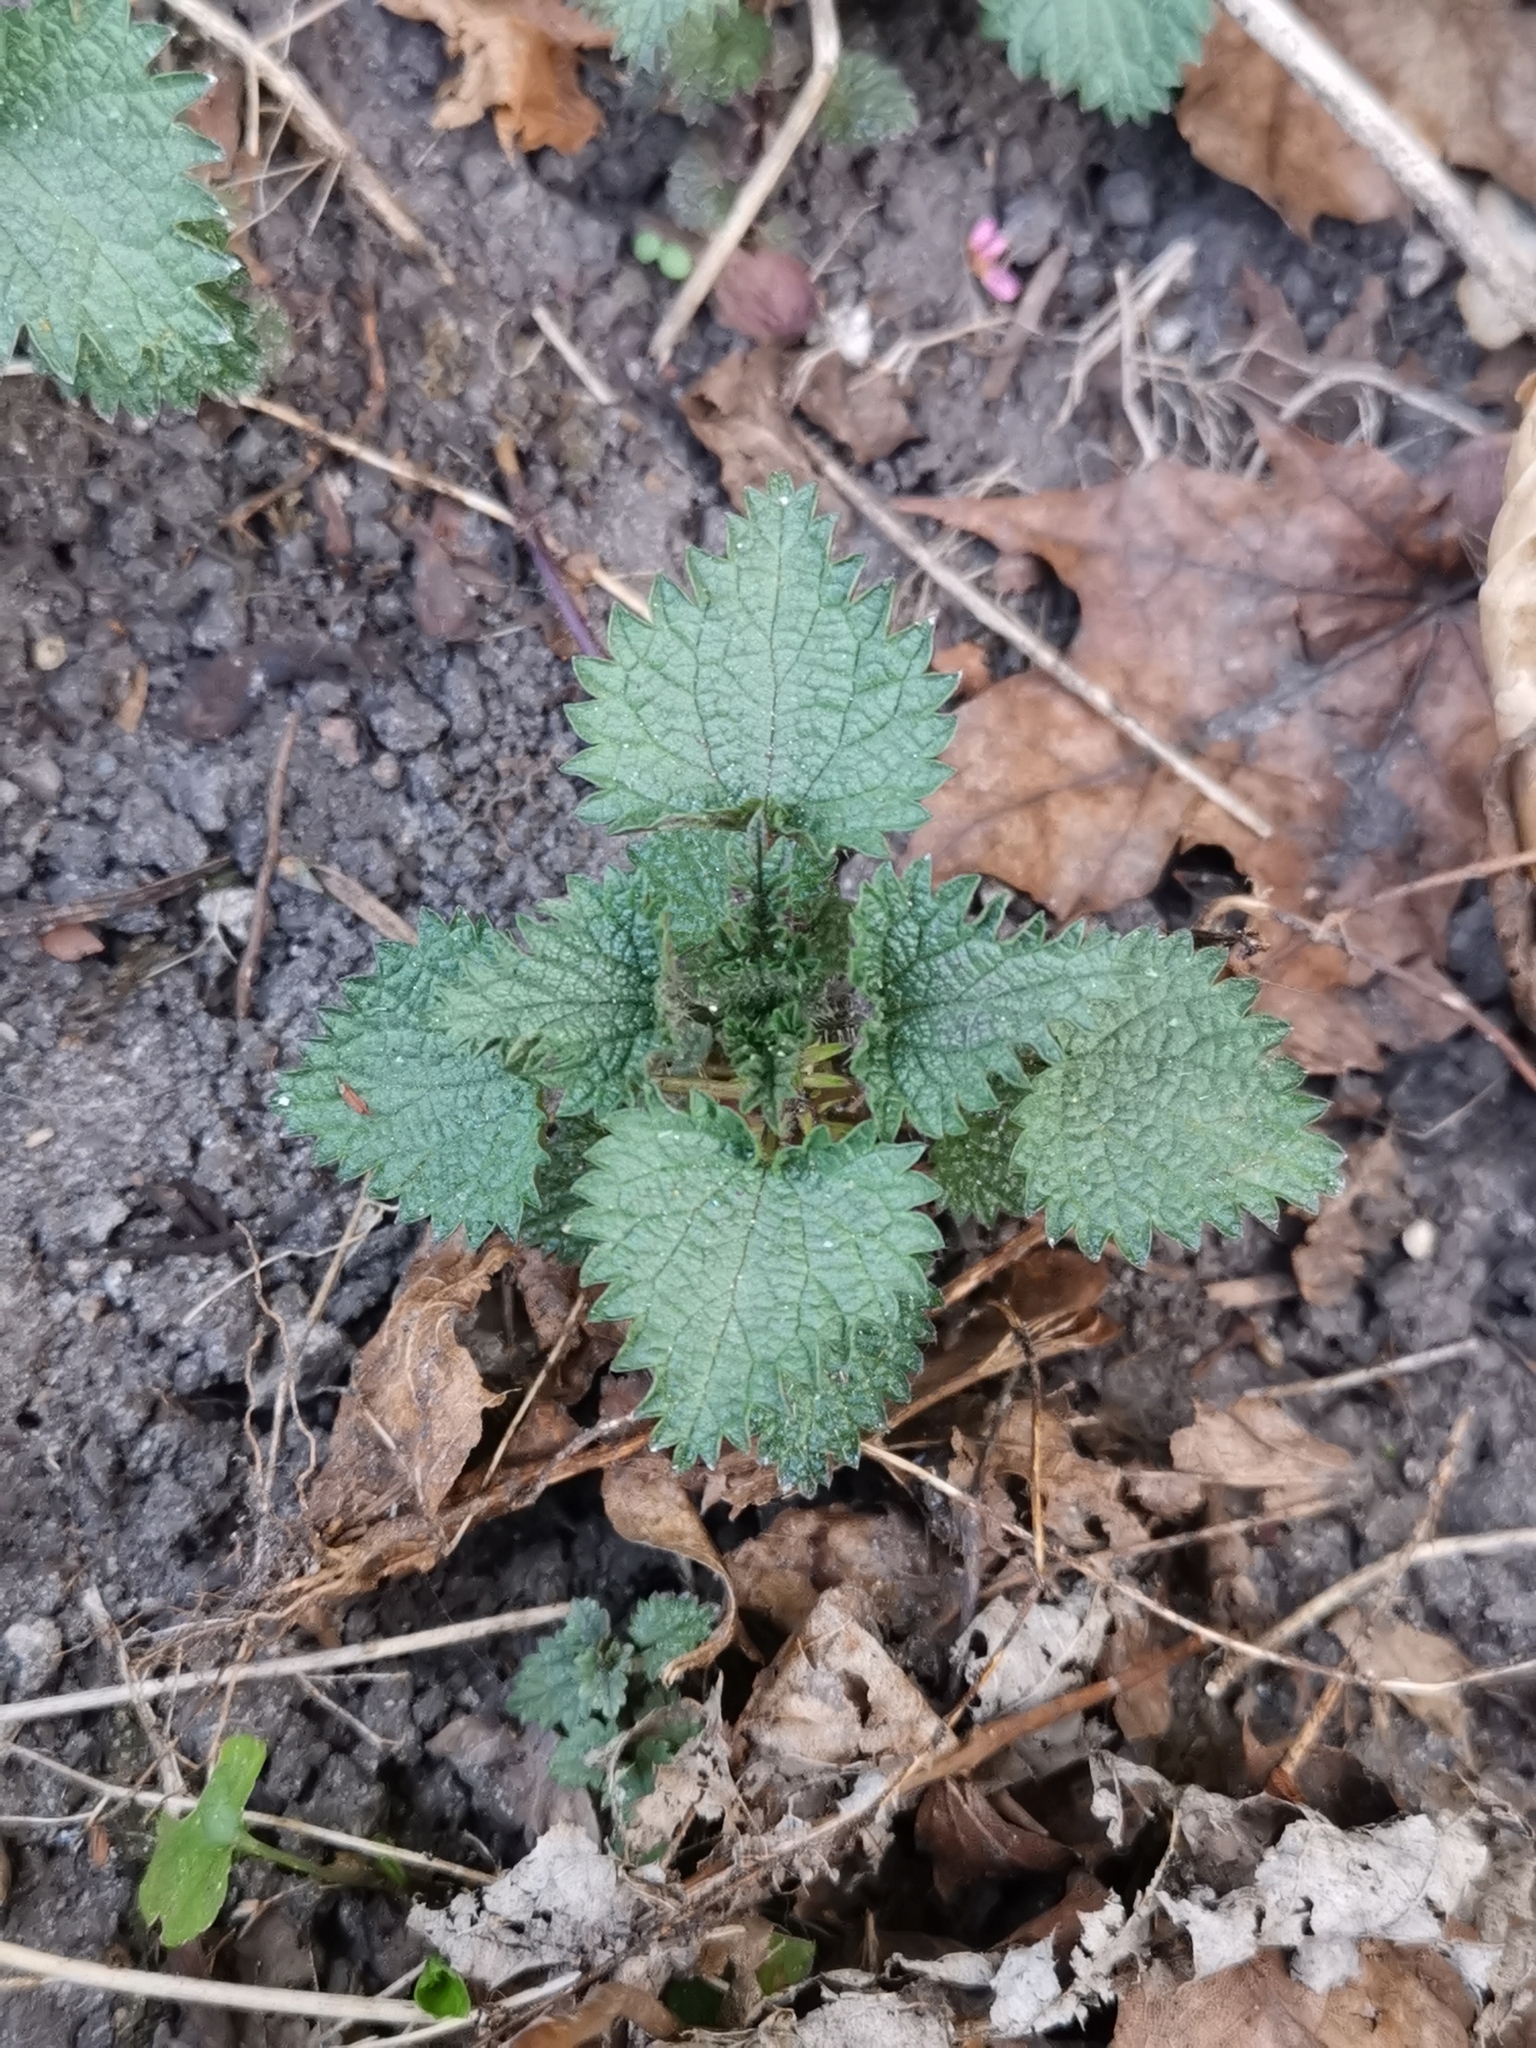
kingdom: Plantae
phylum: Tracheophyta
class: Magnoliopsida
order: Rosales
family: Urticaceae
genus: Urtica
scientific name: Urtica dioica
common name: Common nettle
